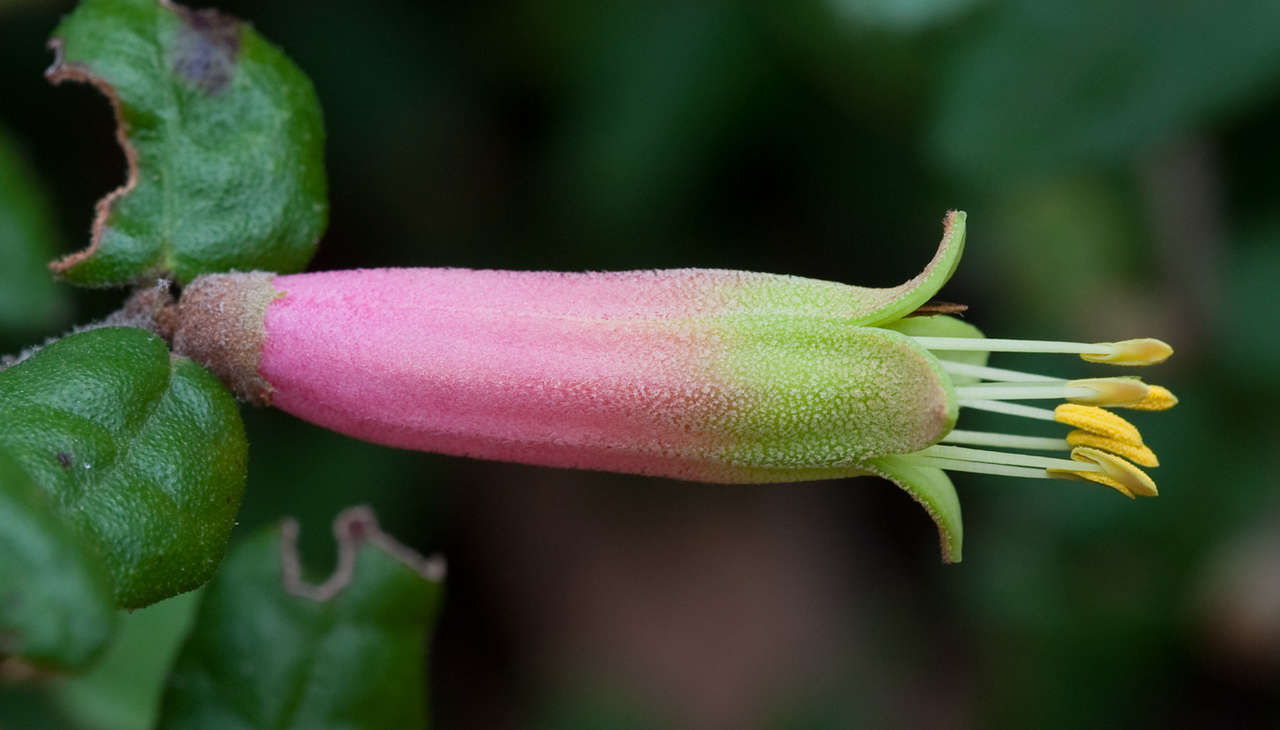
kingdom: Plantae
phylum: Tracheophyta
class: Magnoliopsida
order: Sapindales
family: Rutaceae
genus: Correa
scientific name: Correa reflexa
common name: Common correa
